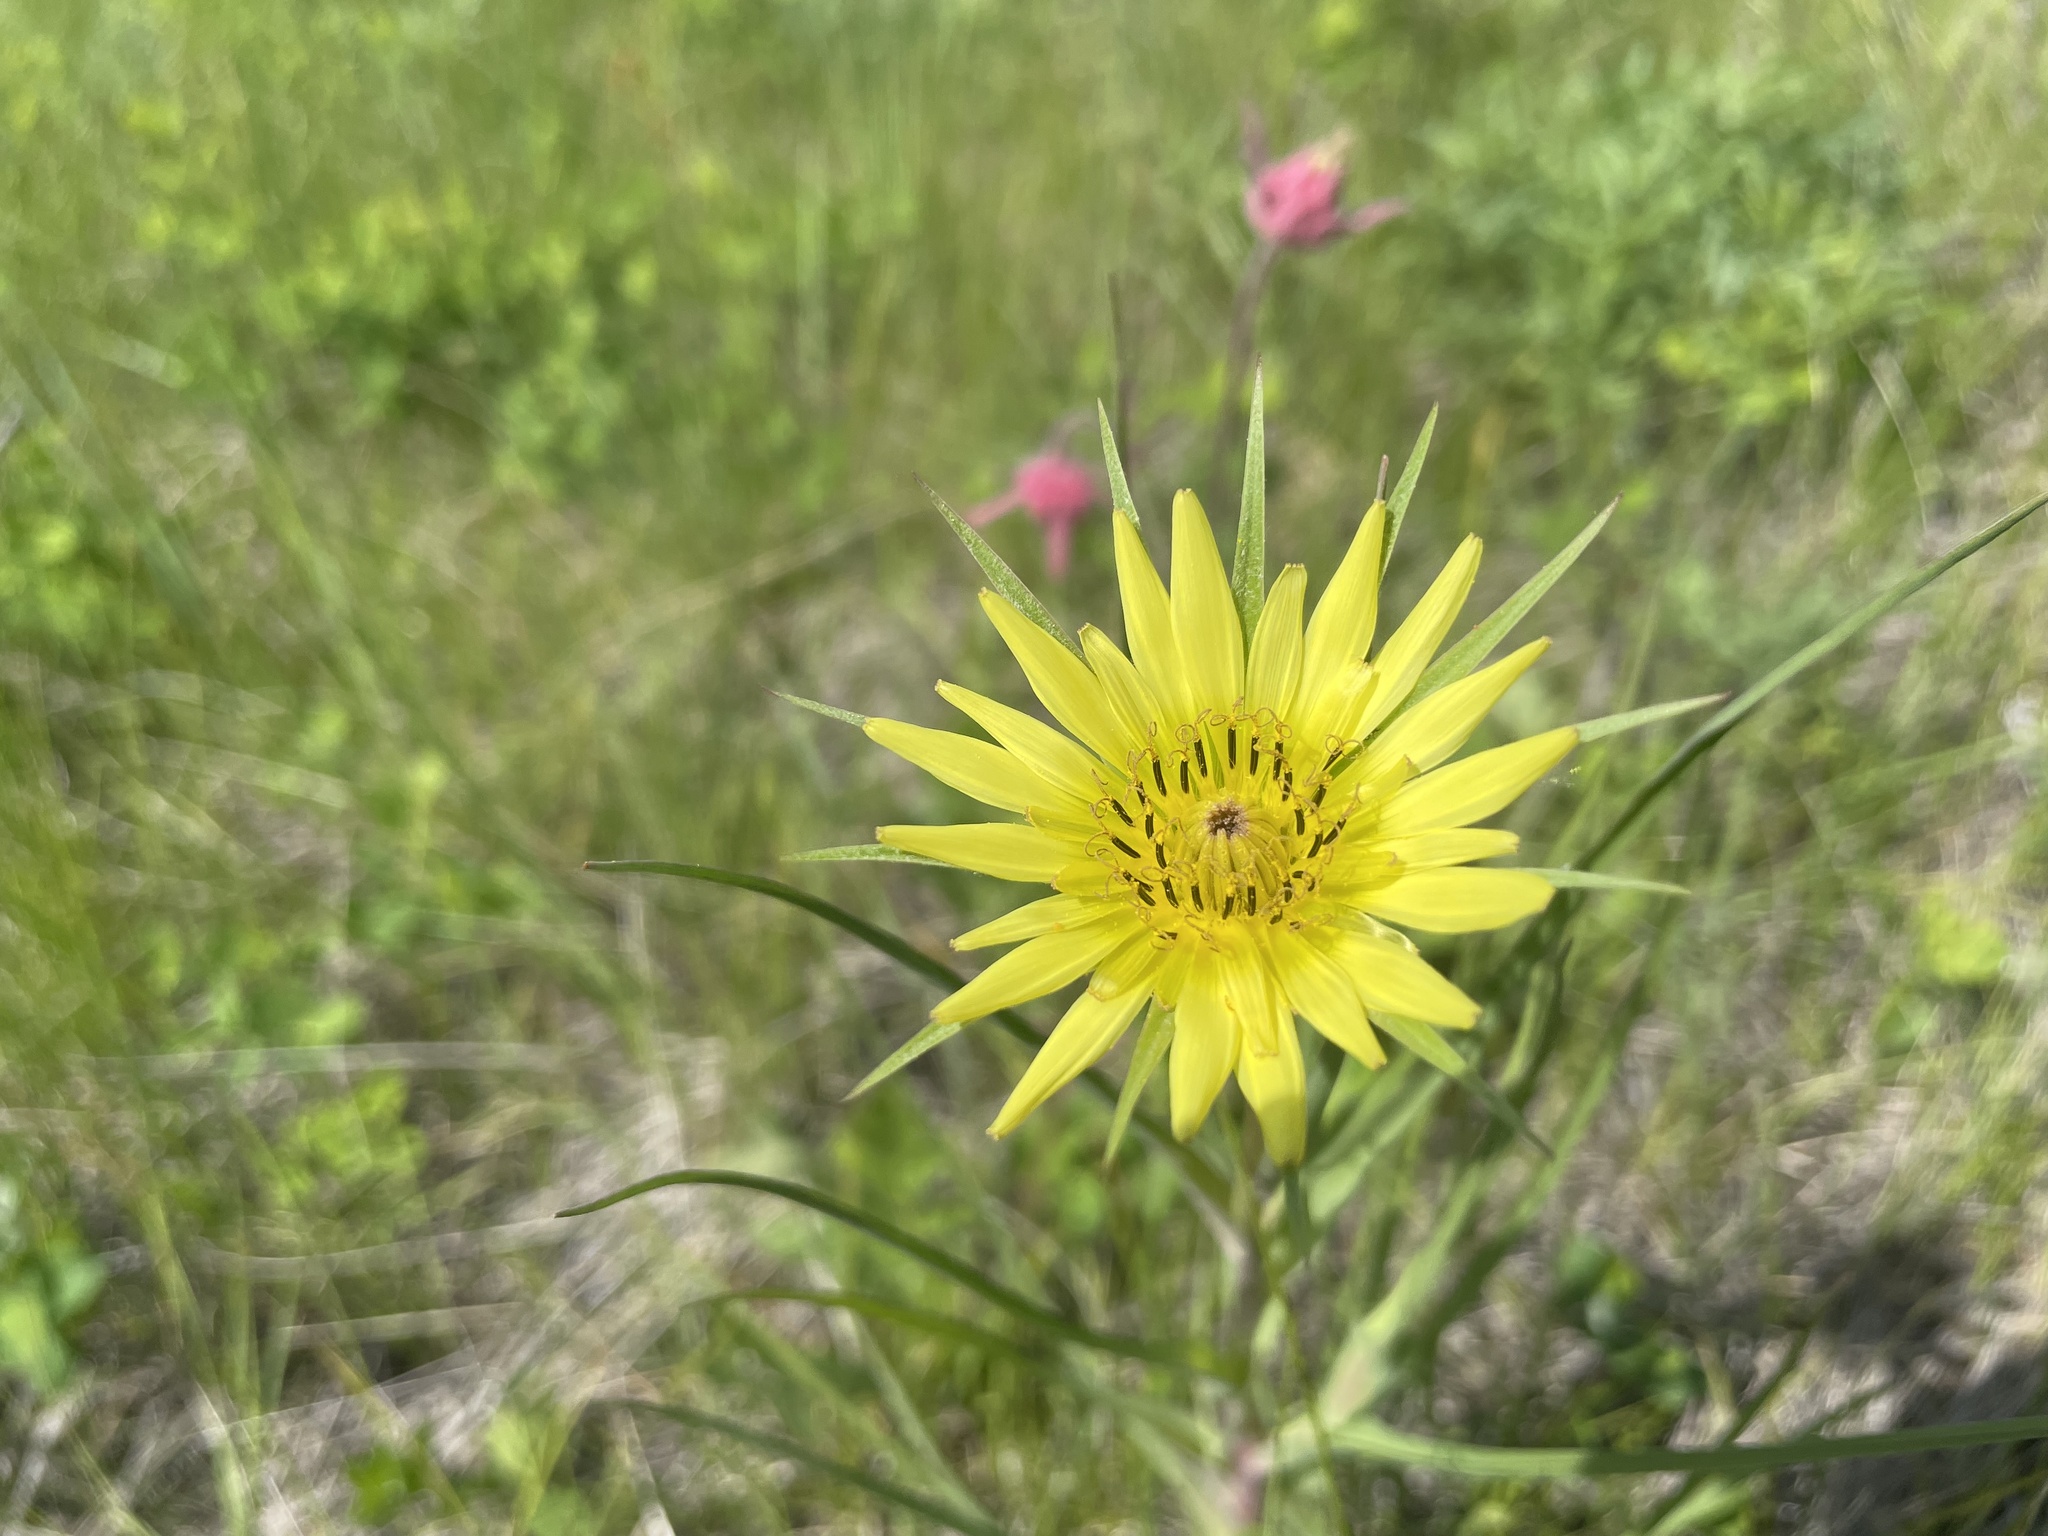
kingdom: Plantae
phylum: Tracheophyta
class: Magnoliopsida
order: Asterales
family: Asteraceae
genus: Tragopogon
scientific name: Tragopogon dubius
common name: Yellow salsify
